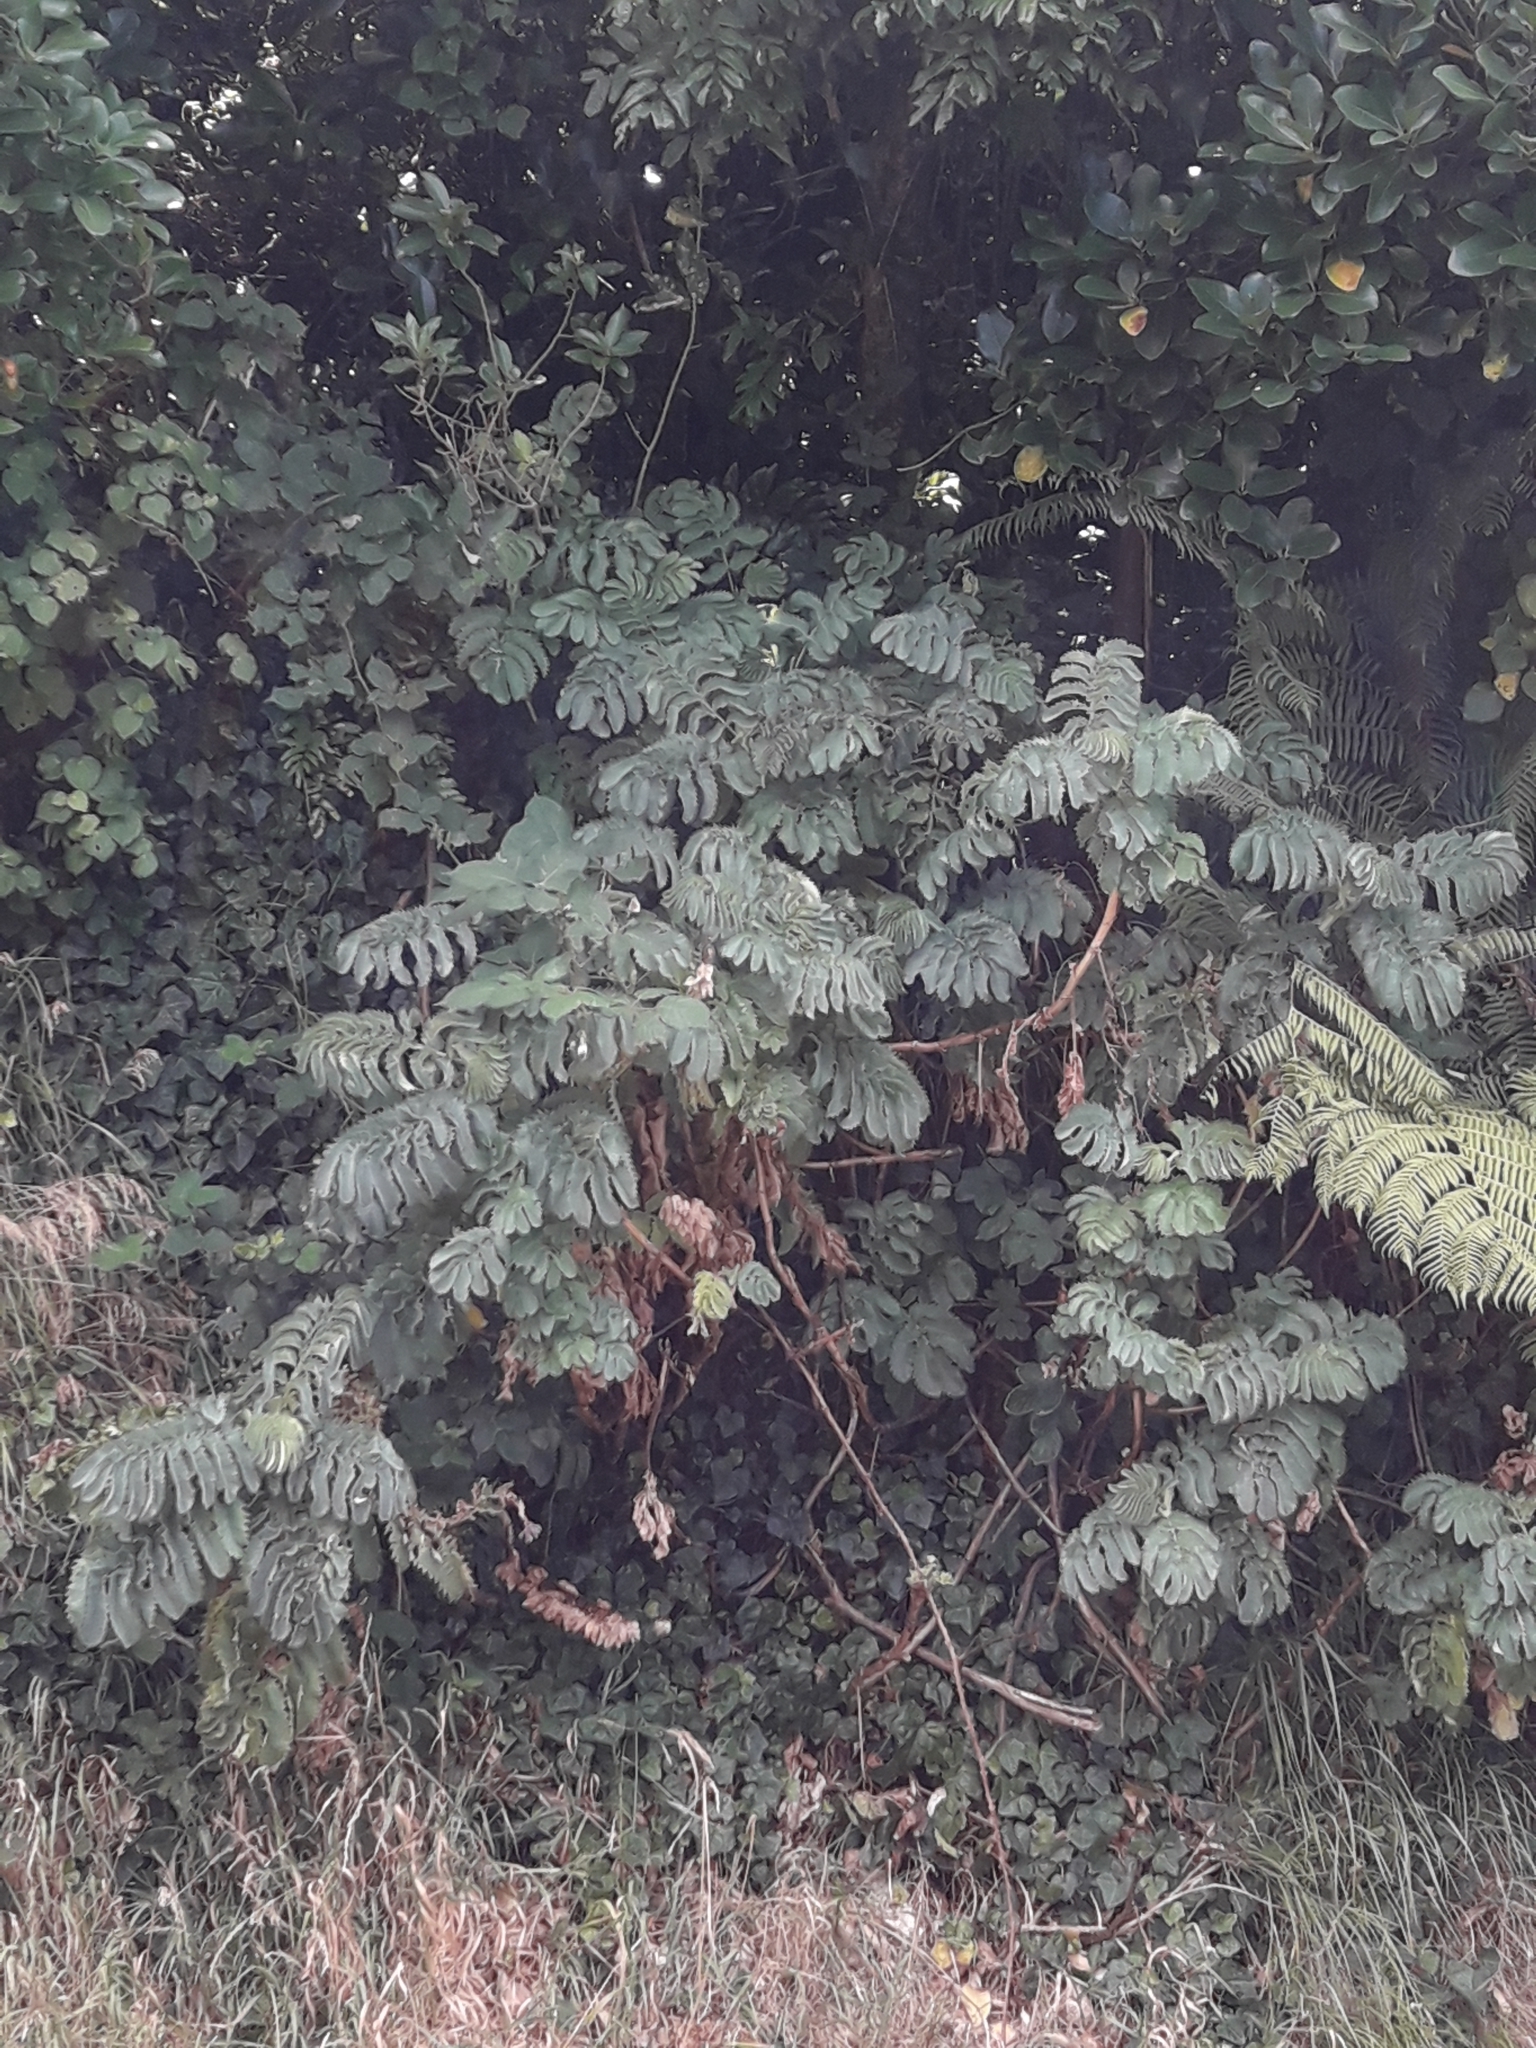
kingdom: Plantae
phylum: Tracheophyta
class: Magnoliopsida
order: Geraniales
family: Melianthaceae
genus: Melianthus
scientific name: Melianthus major
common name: Honey-flower
